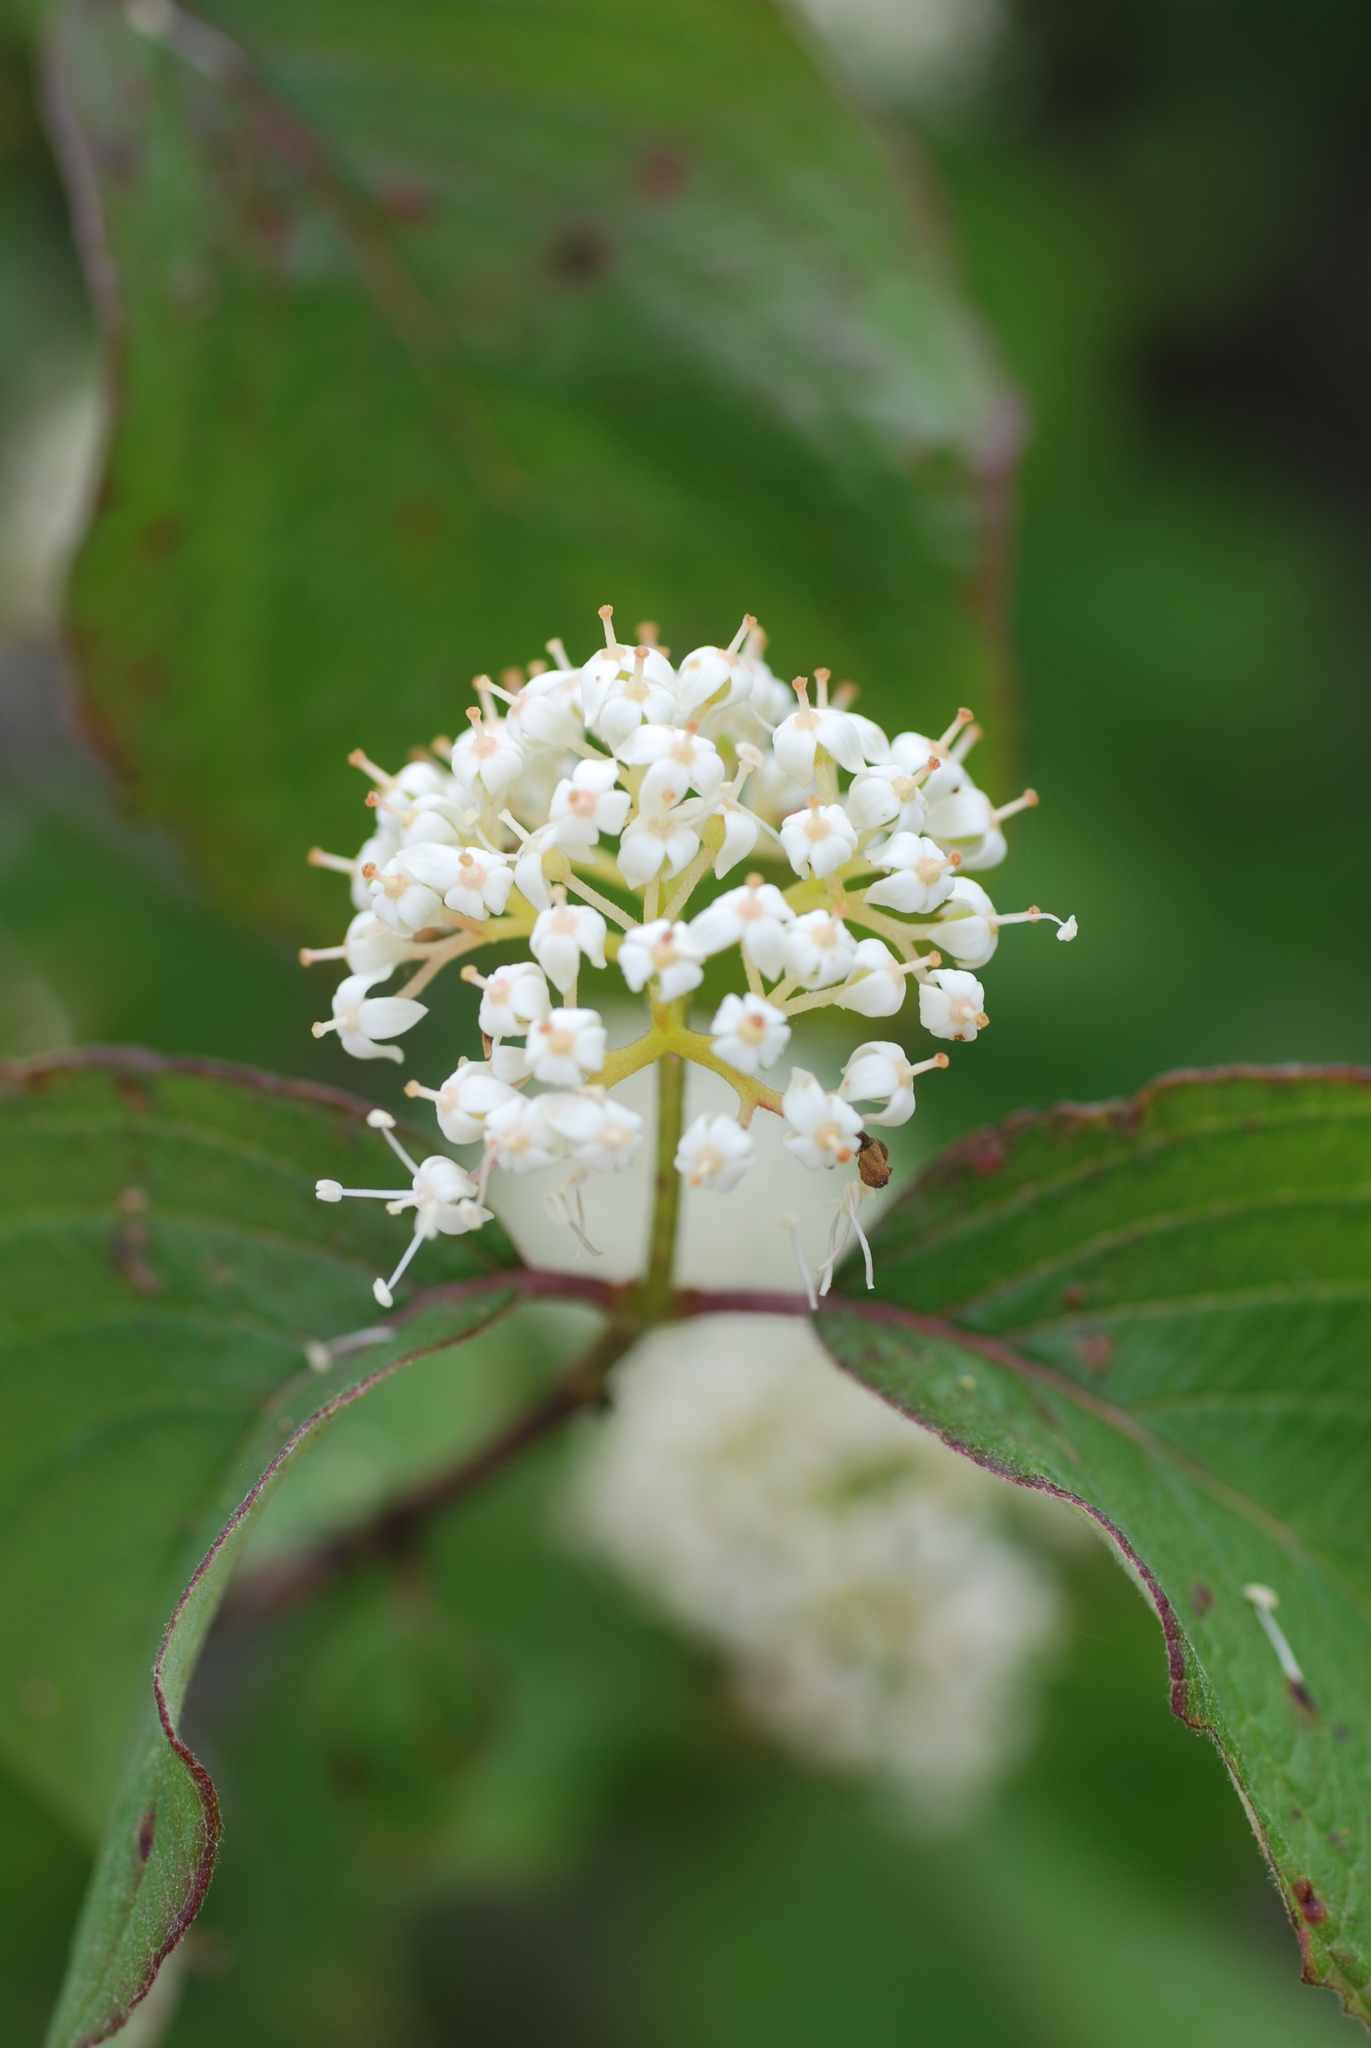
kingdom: Plantae
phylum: Tracheophyta
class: Magnoliopsida
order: Cornales
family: Cornaceae
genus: Cornus
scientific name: Cornus sericea
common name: Red-osier dogwood
